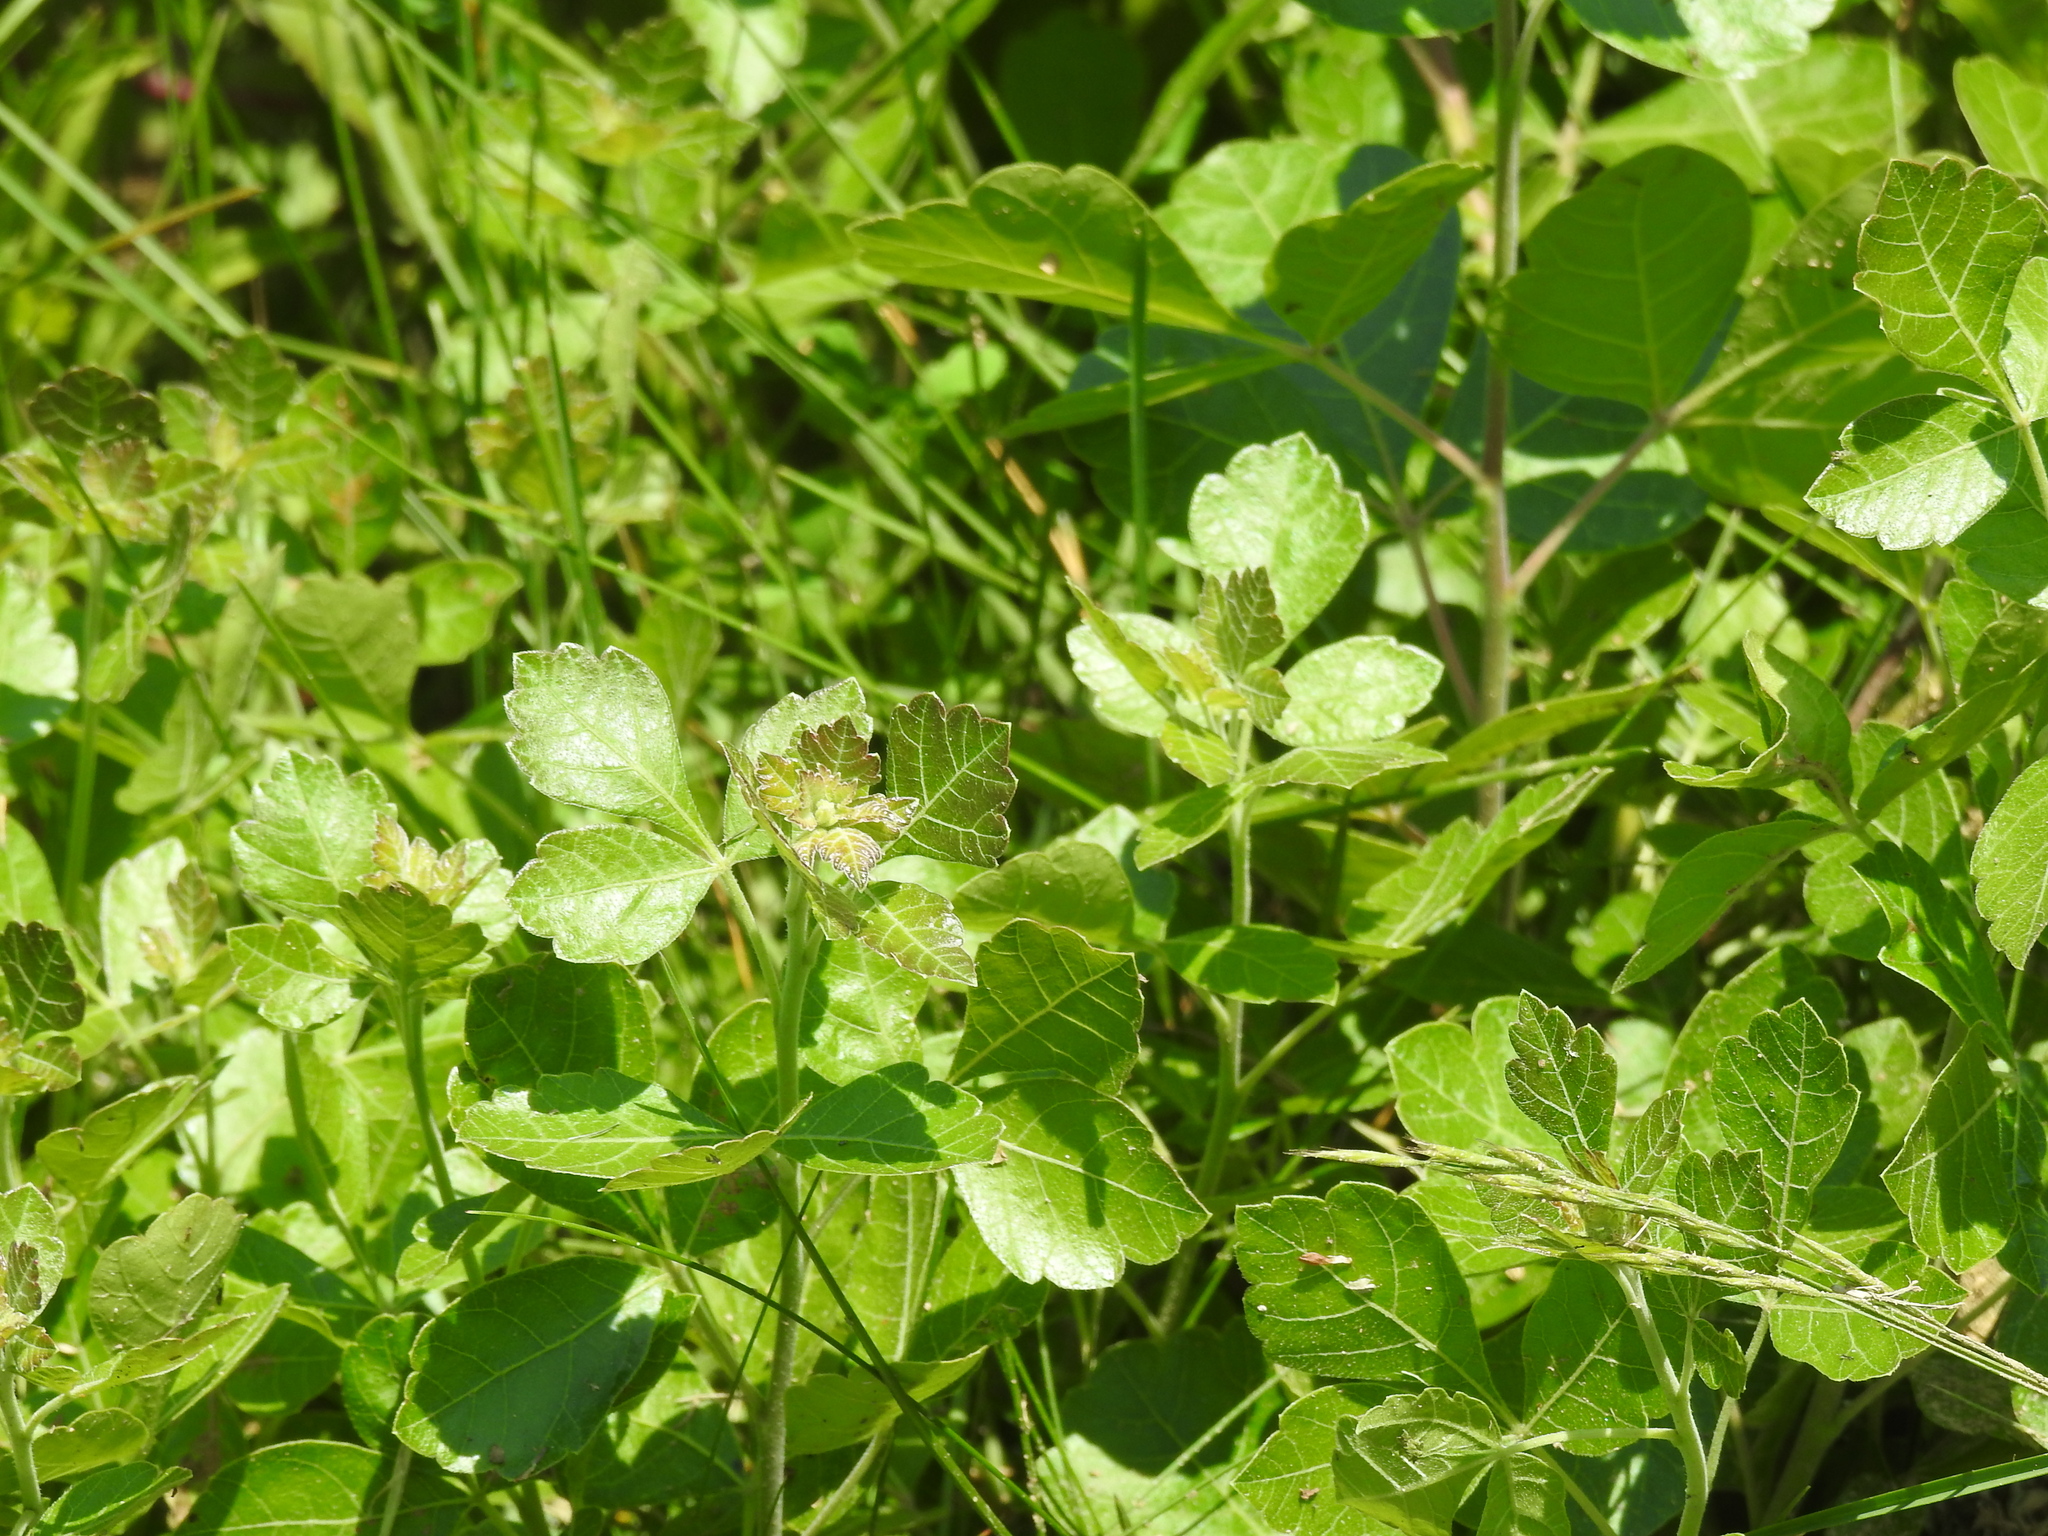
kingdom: Plantae
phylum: Tracheophyta
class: Magnoliopsida
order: Sapindales
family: Anacardiaceae
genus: Rhus
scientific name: Rhus aromatica
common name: Aromatic sumac
